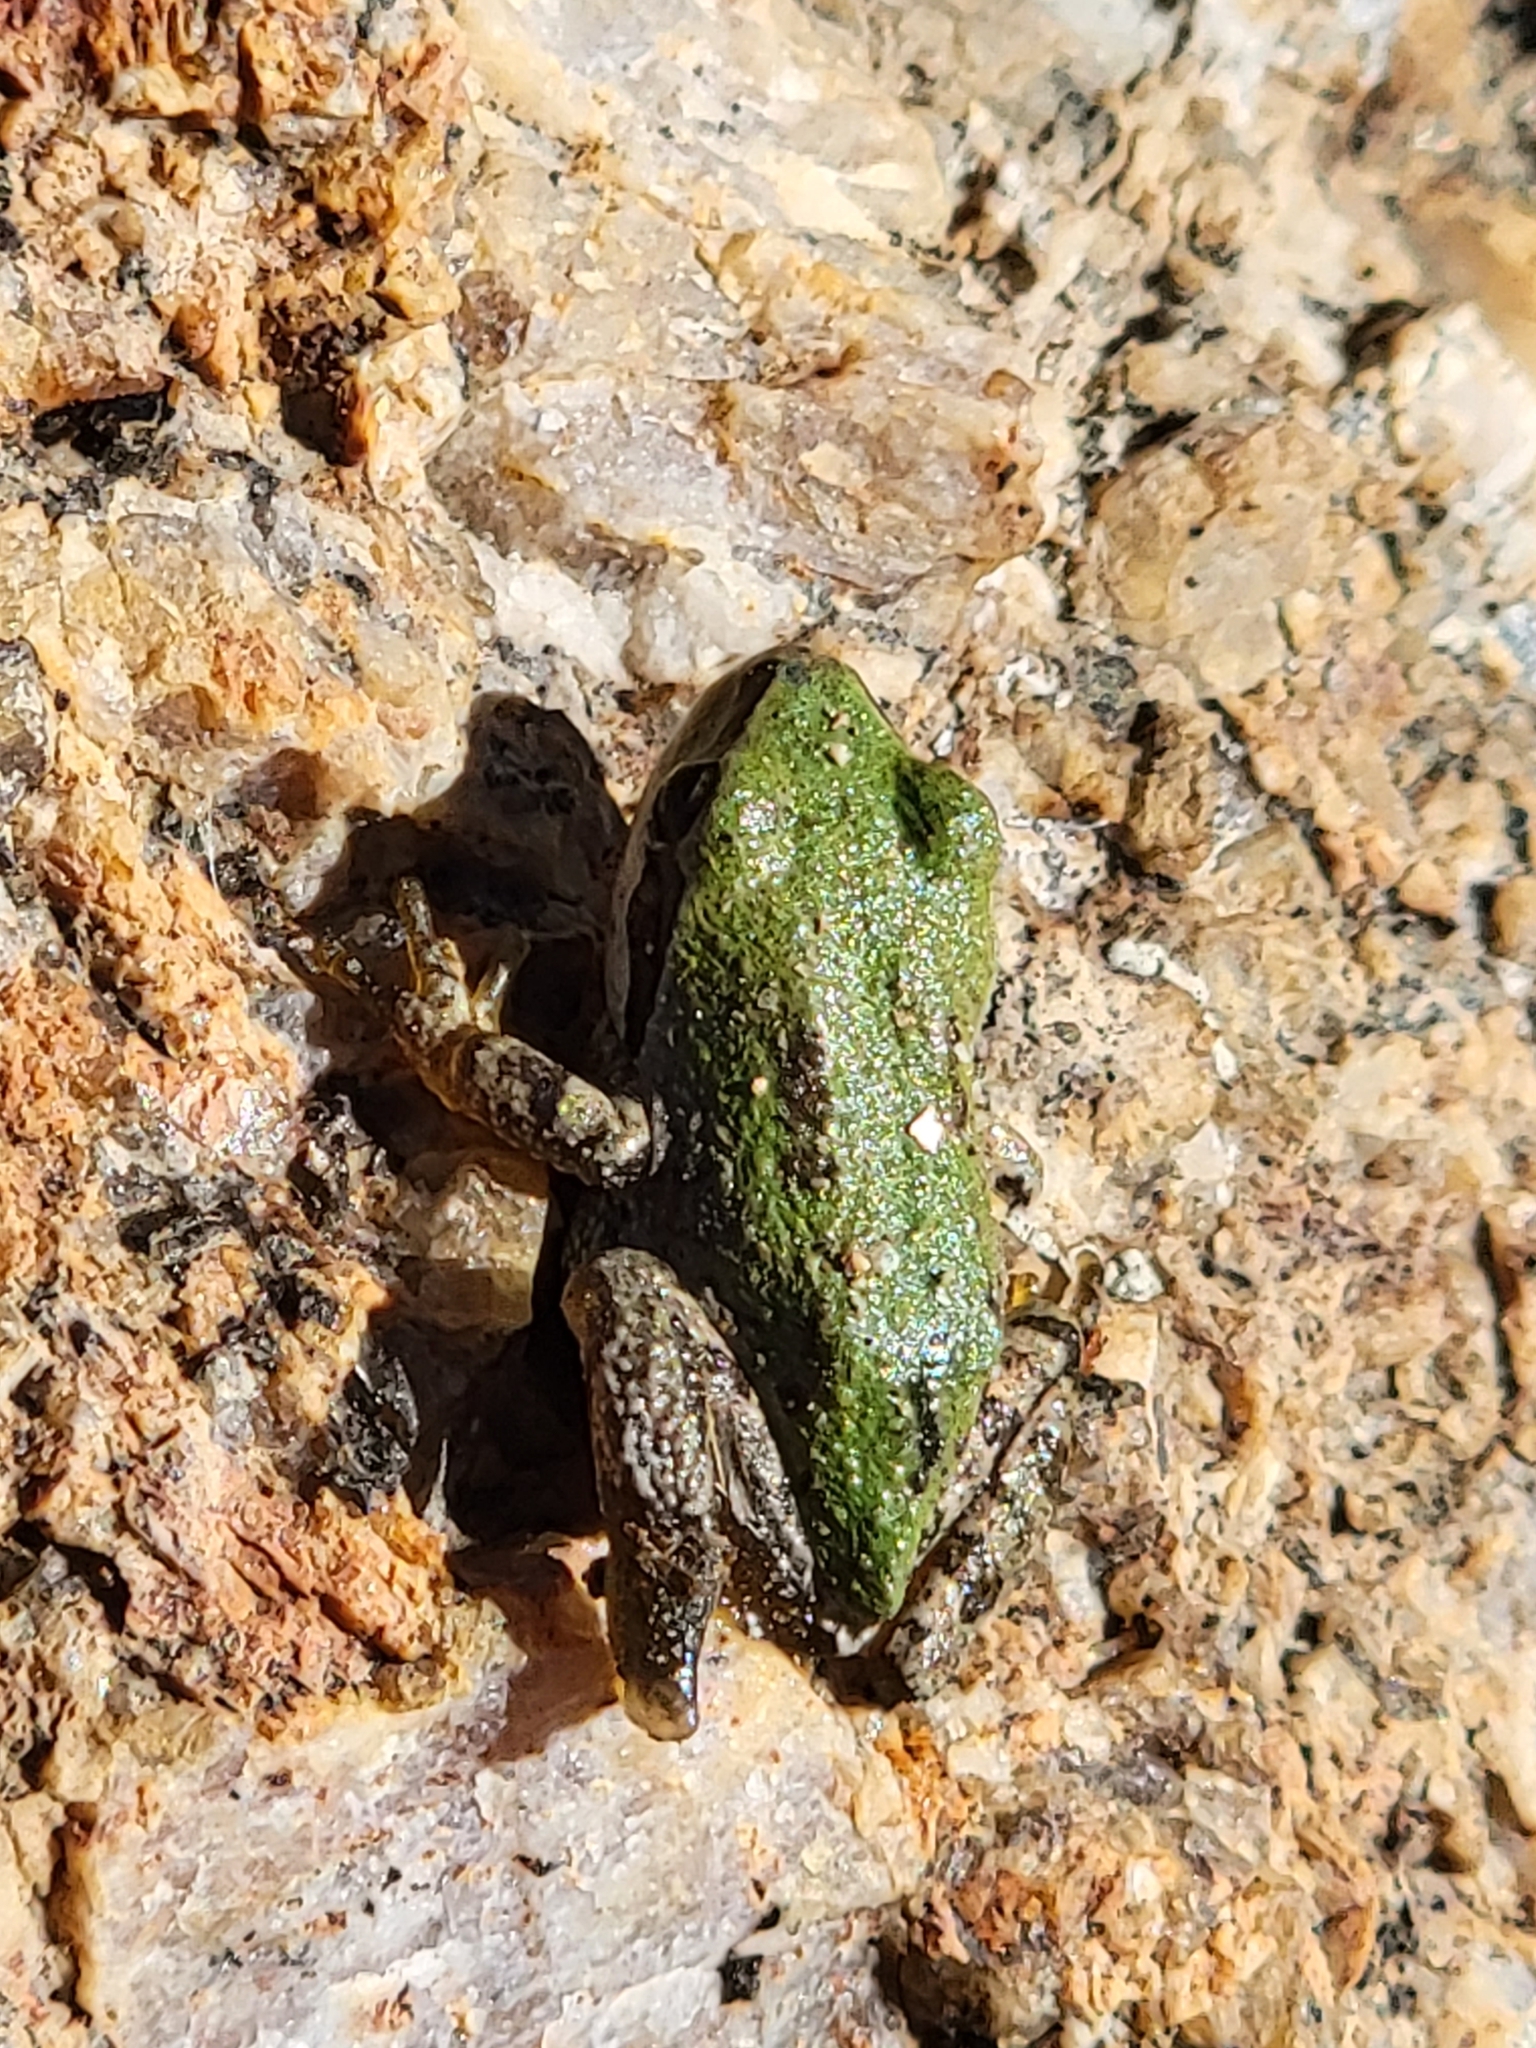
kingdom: Animalia
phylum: Chordata
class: Amphibia
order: Anura
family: Hylidae
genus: Pseudacris
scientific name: Pseudacris regilla
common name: Pacific chorus frog
